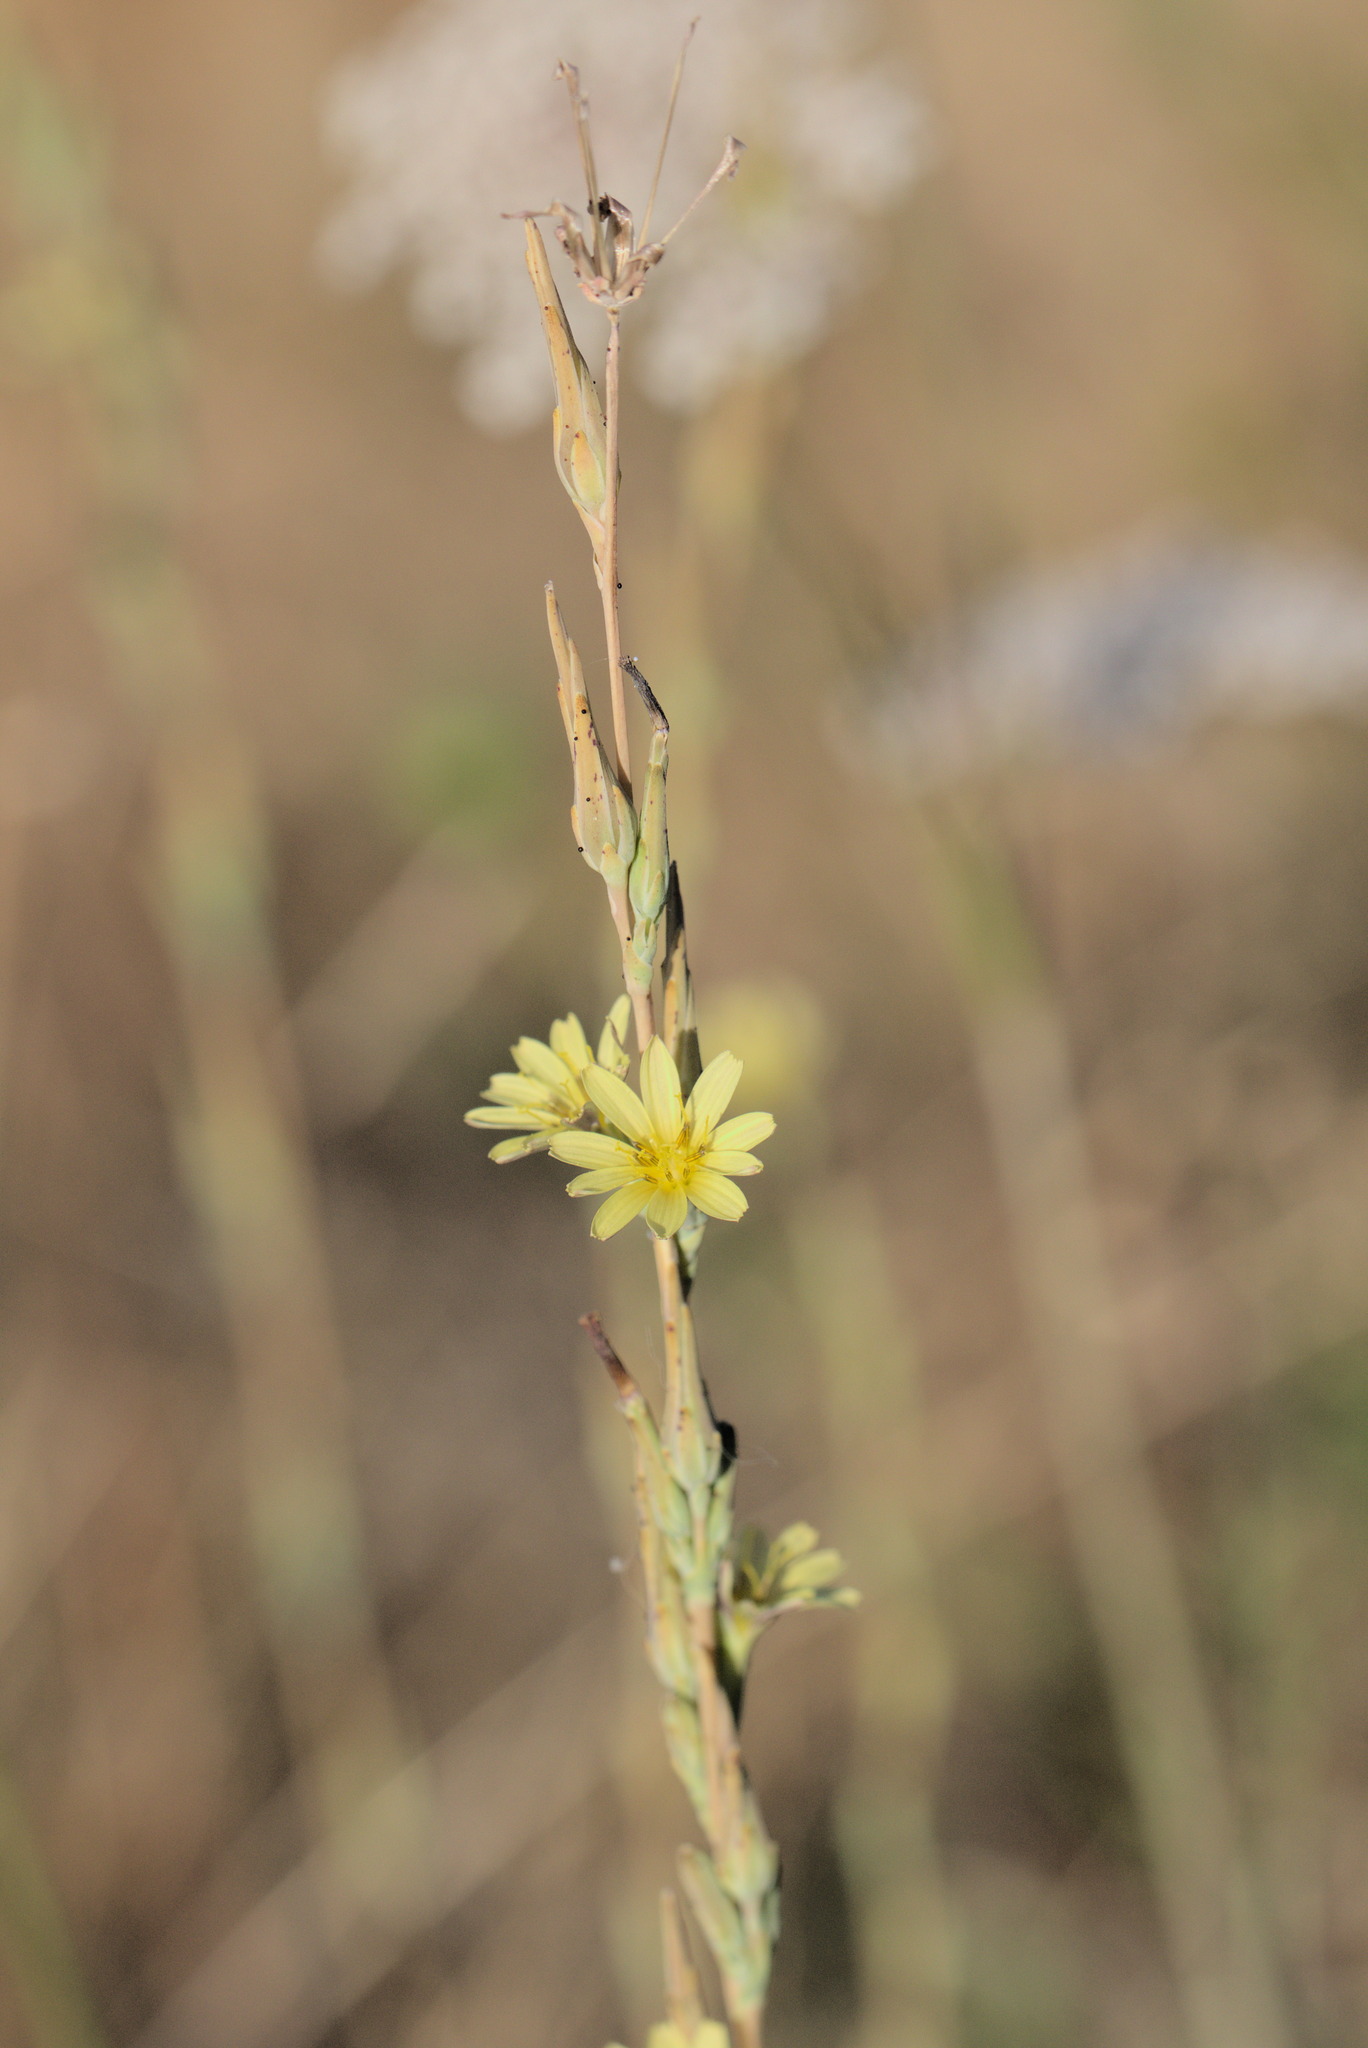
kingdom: Plantae
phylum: Tracheophyta
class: Magnoliopsida
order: Asterales
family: Asteraceae
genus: Lactuca
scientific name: Lactuca saligna
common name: Wild lettuce
